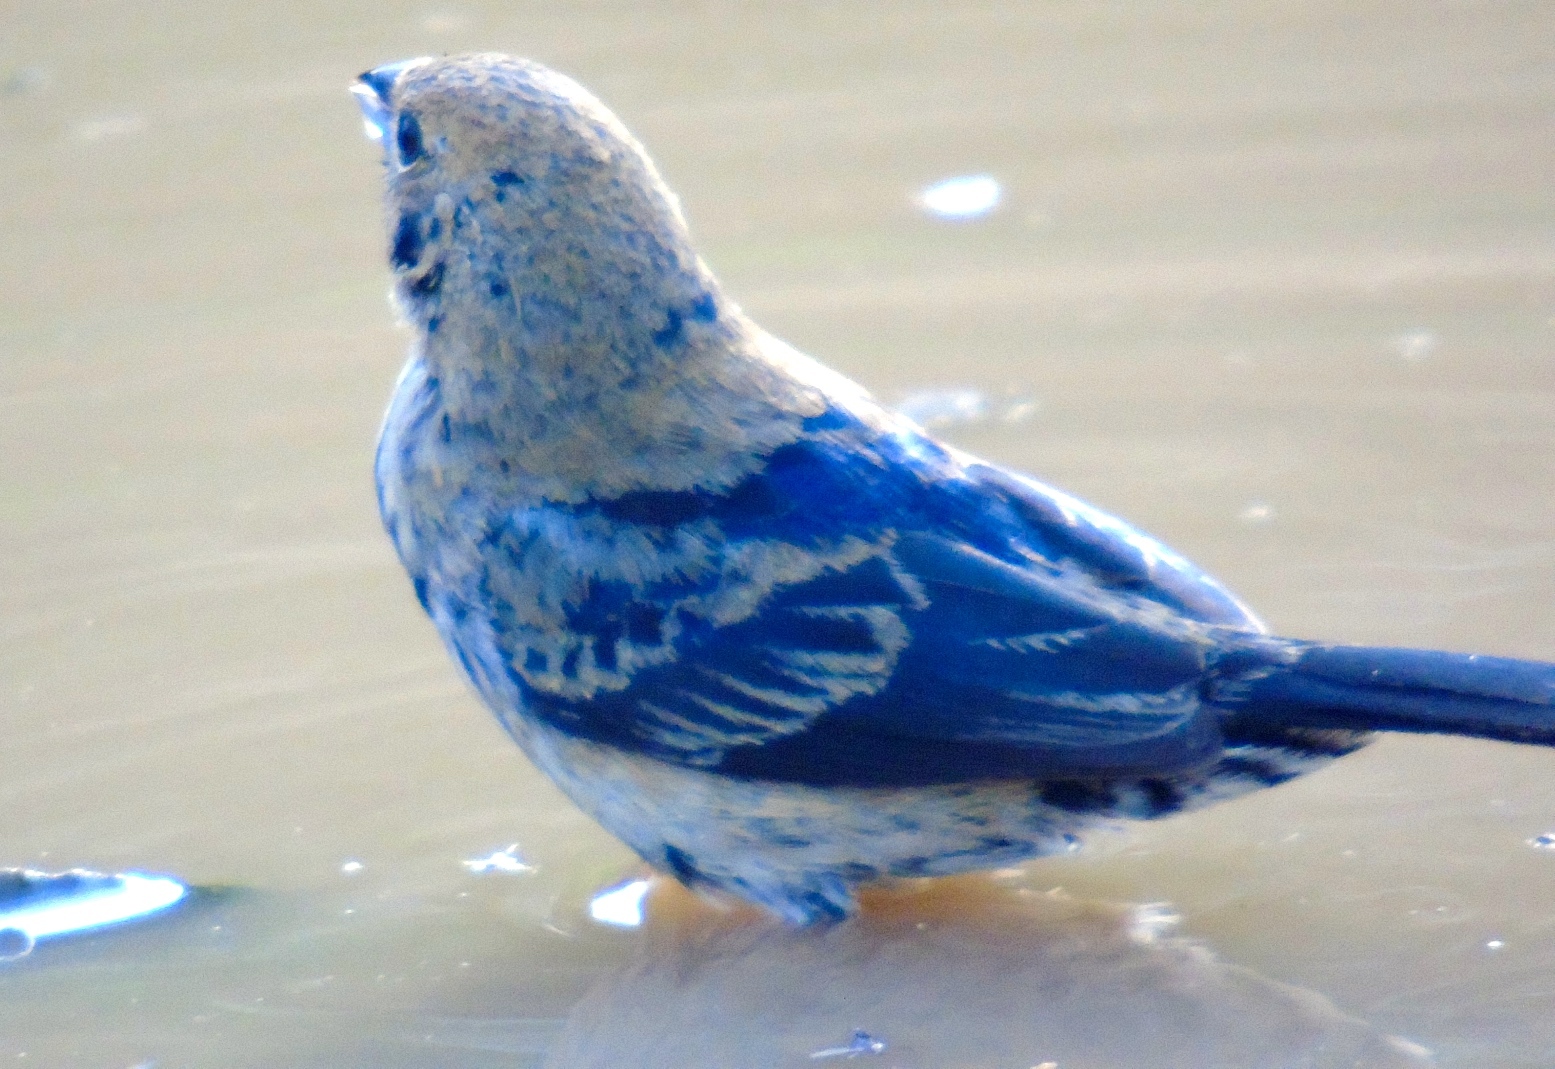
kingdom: Animalia
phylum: Chordata
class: Aves
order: Passeriformes
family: Thraupidae
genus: Volatinia
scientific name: Volatinia jacarina
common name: Blue-black grassquit
